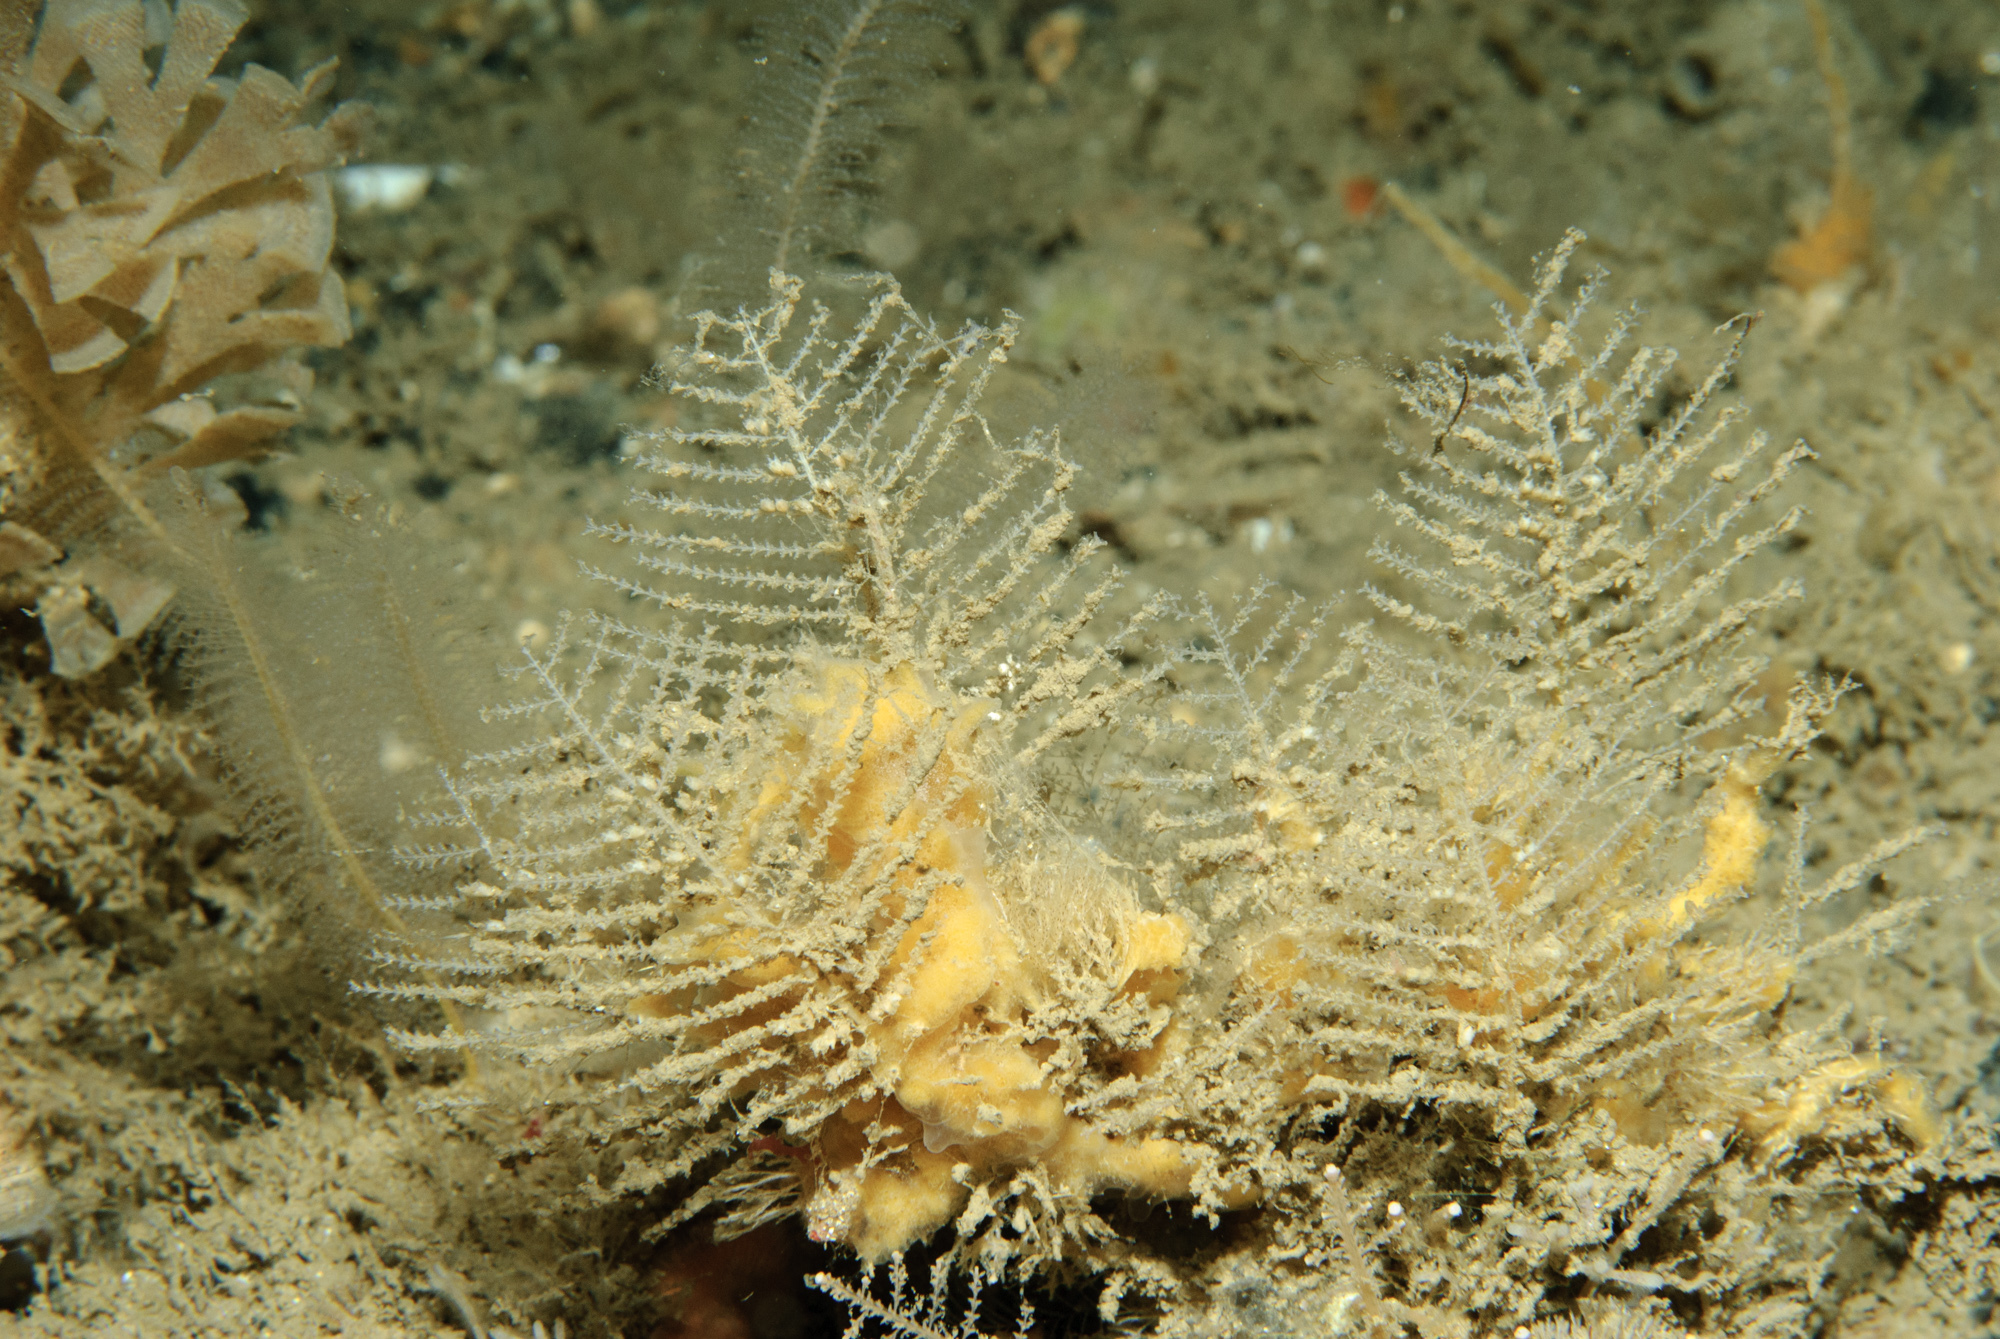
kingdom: Animalia
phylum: Cnidaria
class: Hydrozoa
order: Leptothecata
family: Sertulariidae
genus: Diphasia
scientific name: Diphasia margareta
